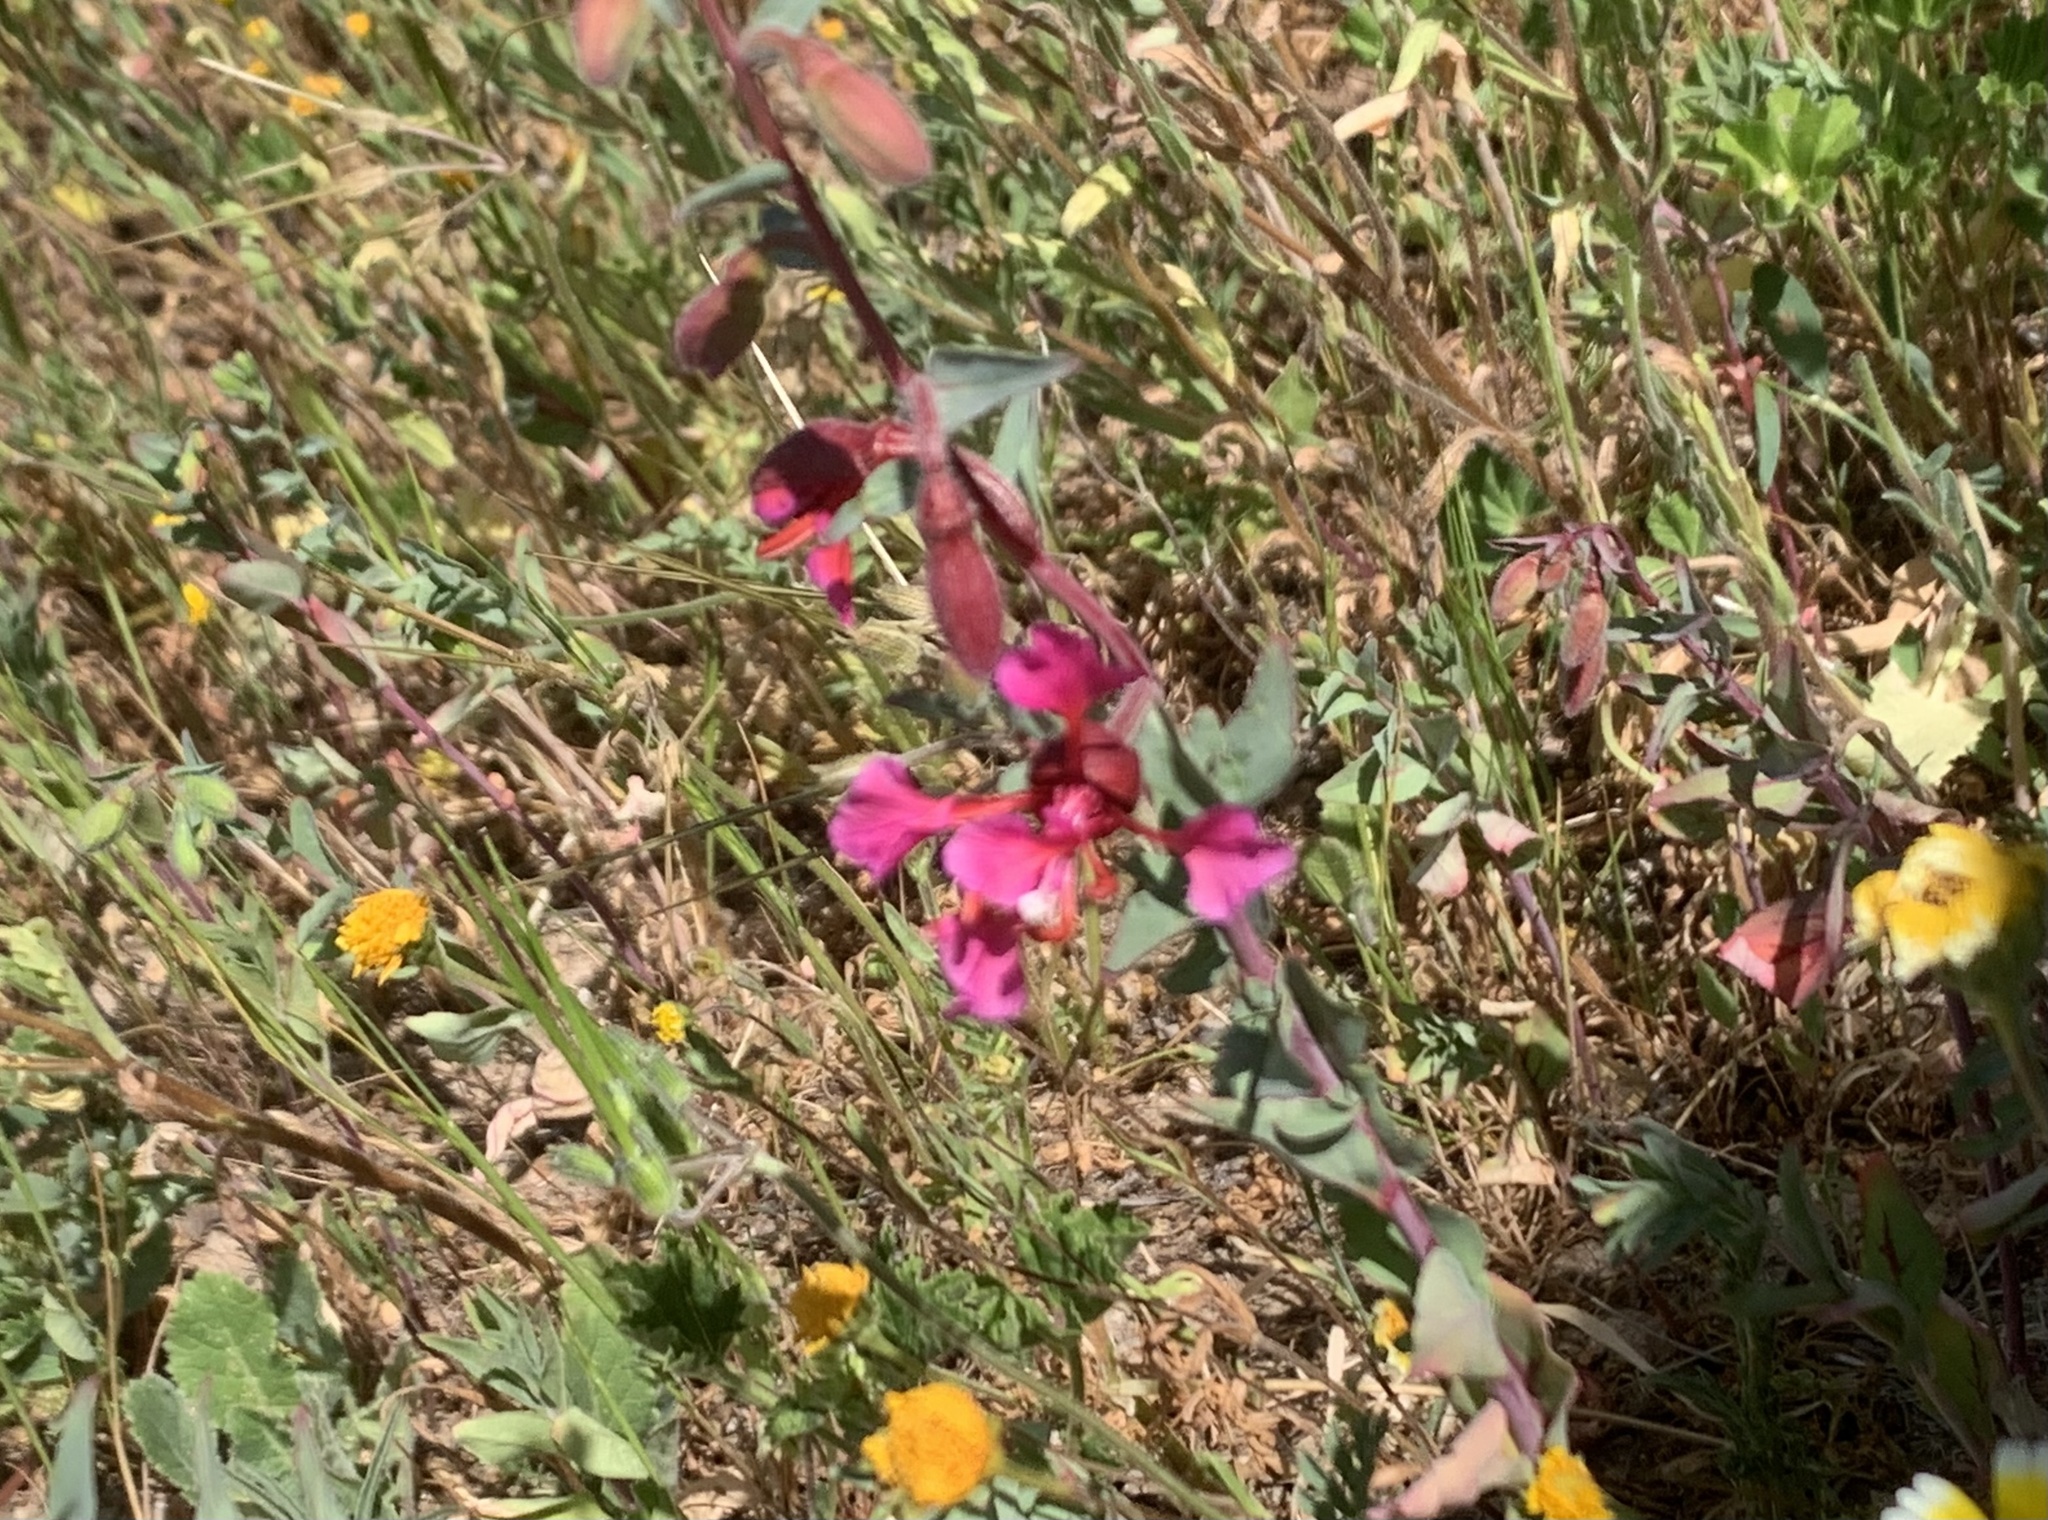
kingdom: Plantae
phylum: Tracheophyta
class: Magnoliopsida
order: Myrtales
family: Onagraceae
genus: Clarkia
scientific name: Clarkia unguiculata
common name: Clarkia
